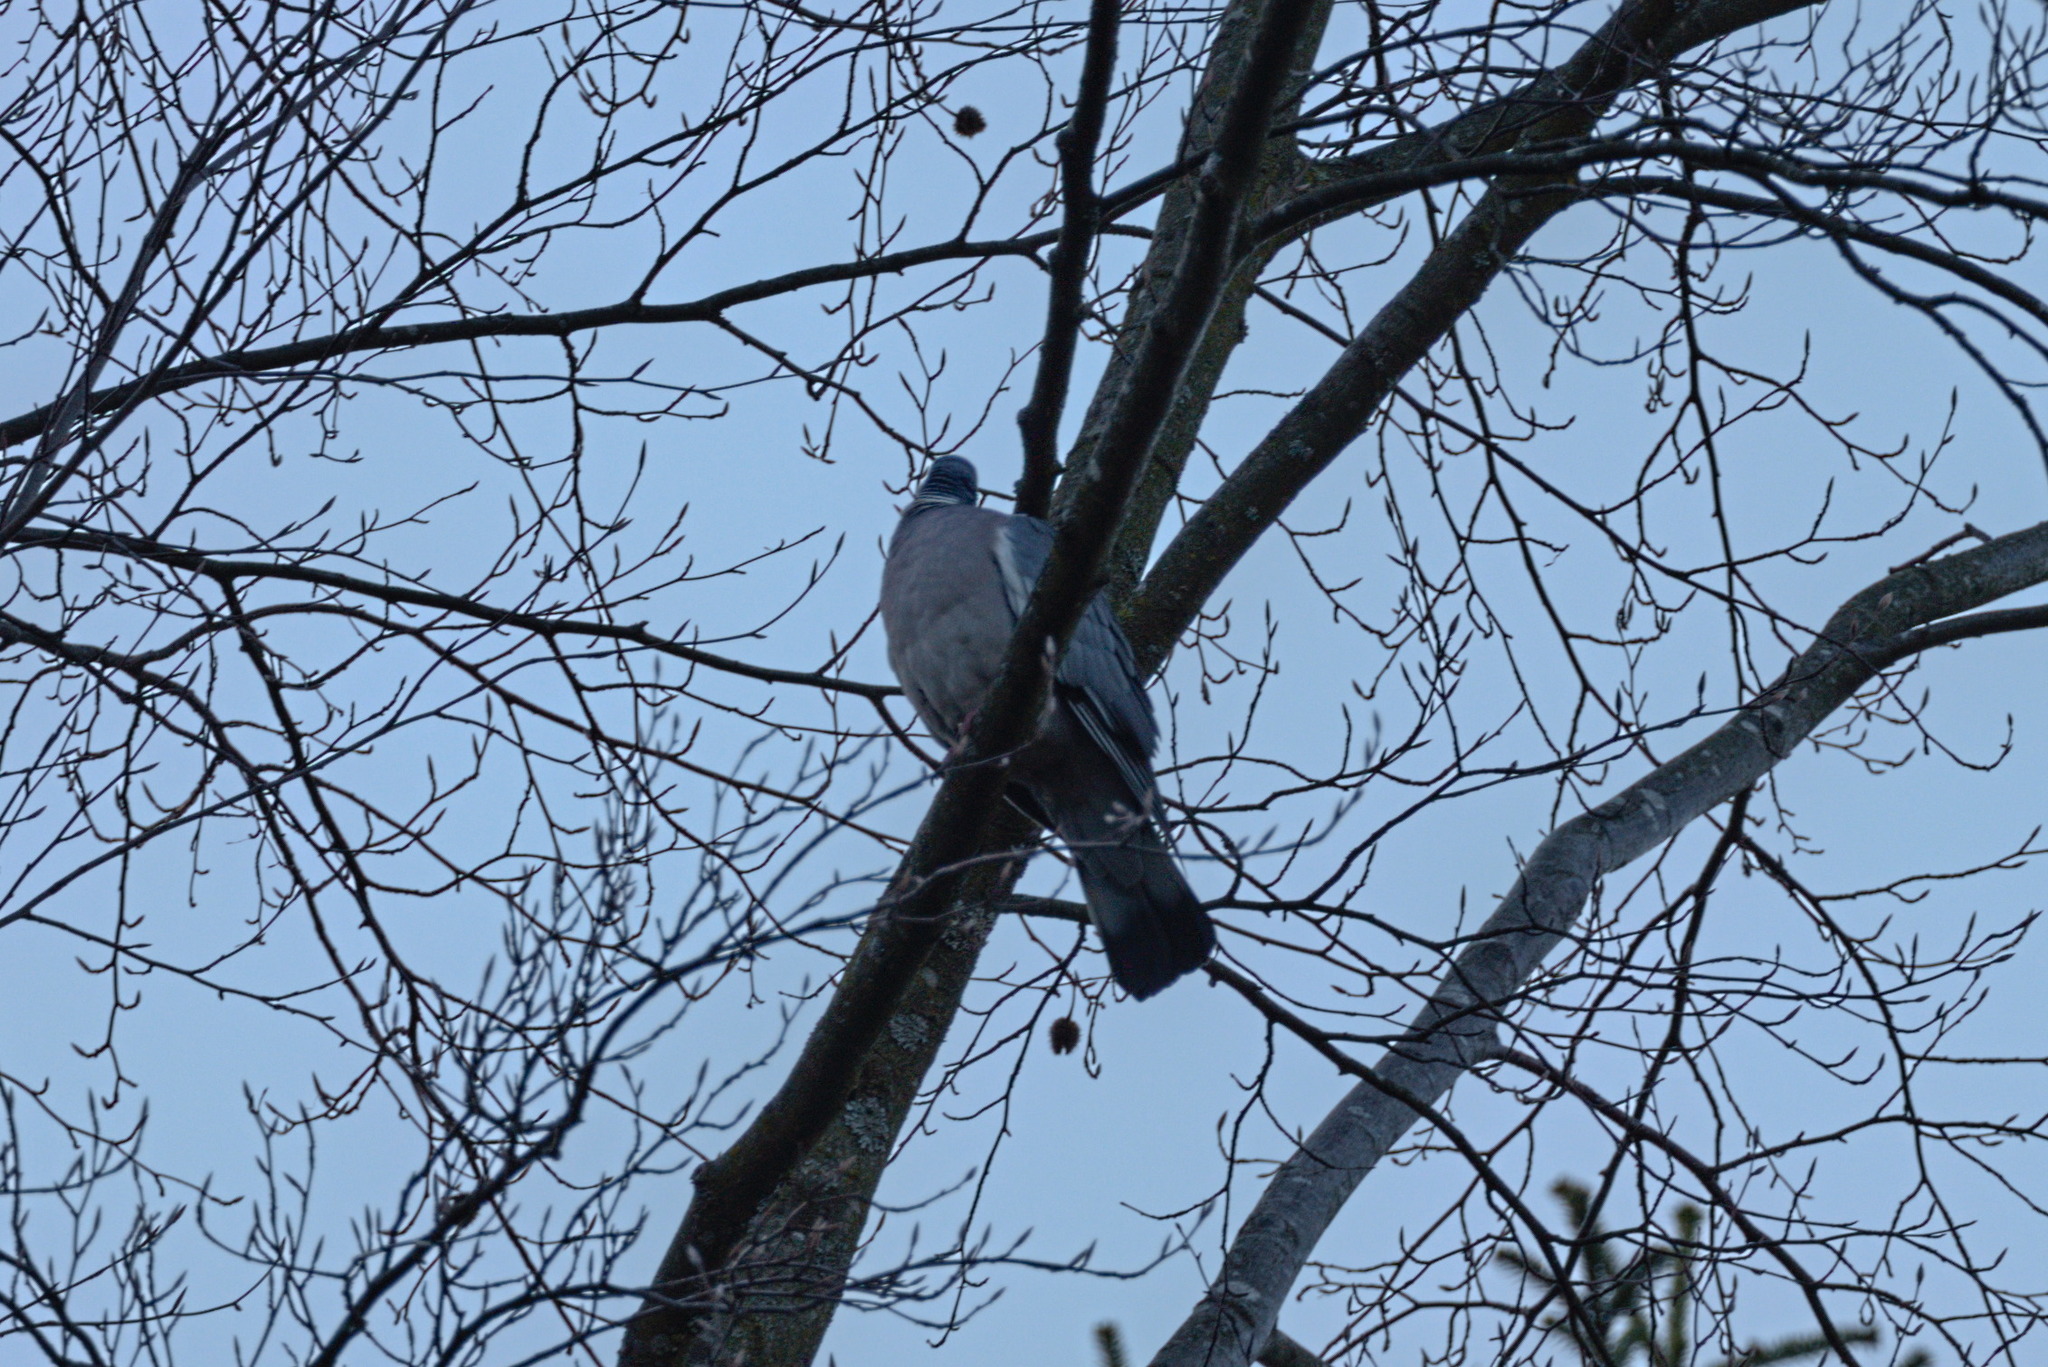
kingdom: Animalia
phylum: Chordata
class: Aves
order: Columbiformes
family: Columbidae
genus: Columba
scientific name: Columba palumbus
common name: Common wood pigeon
